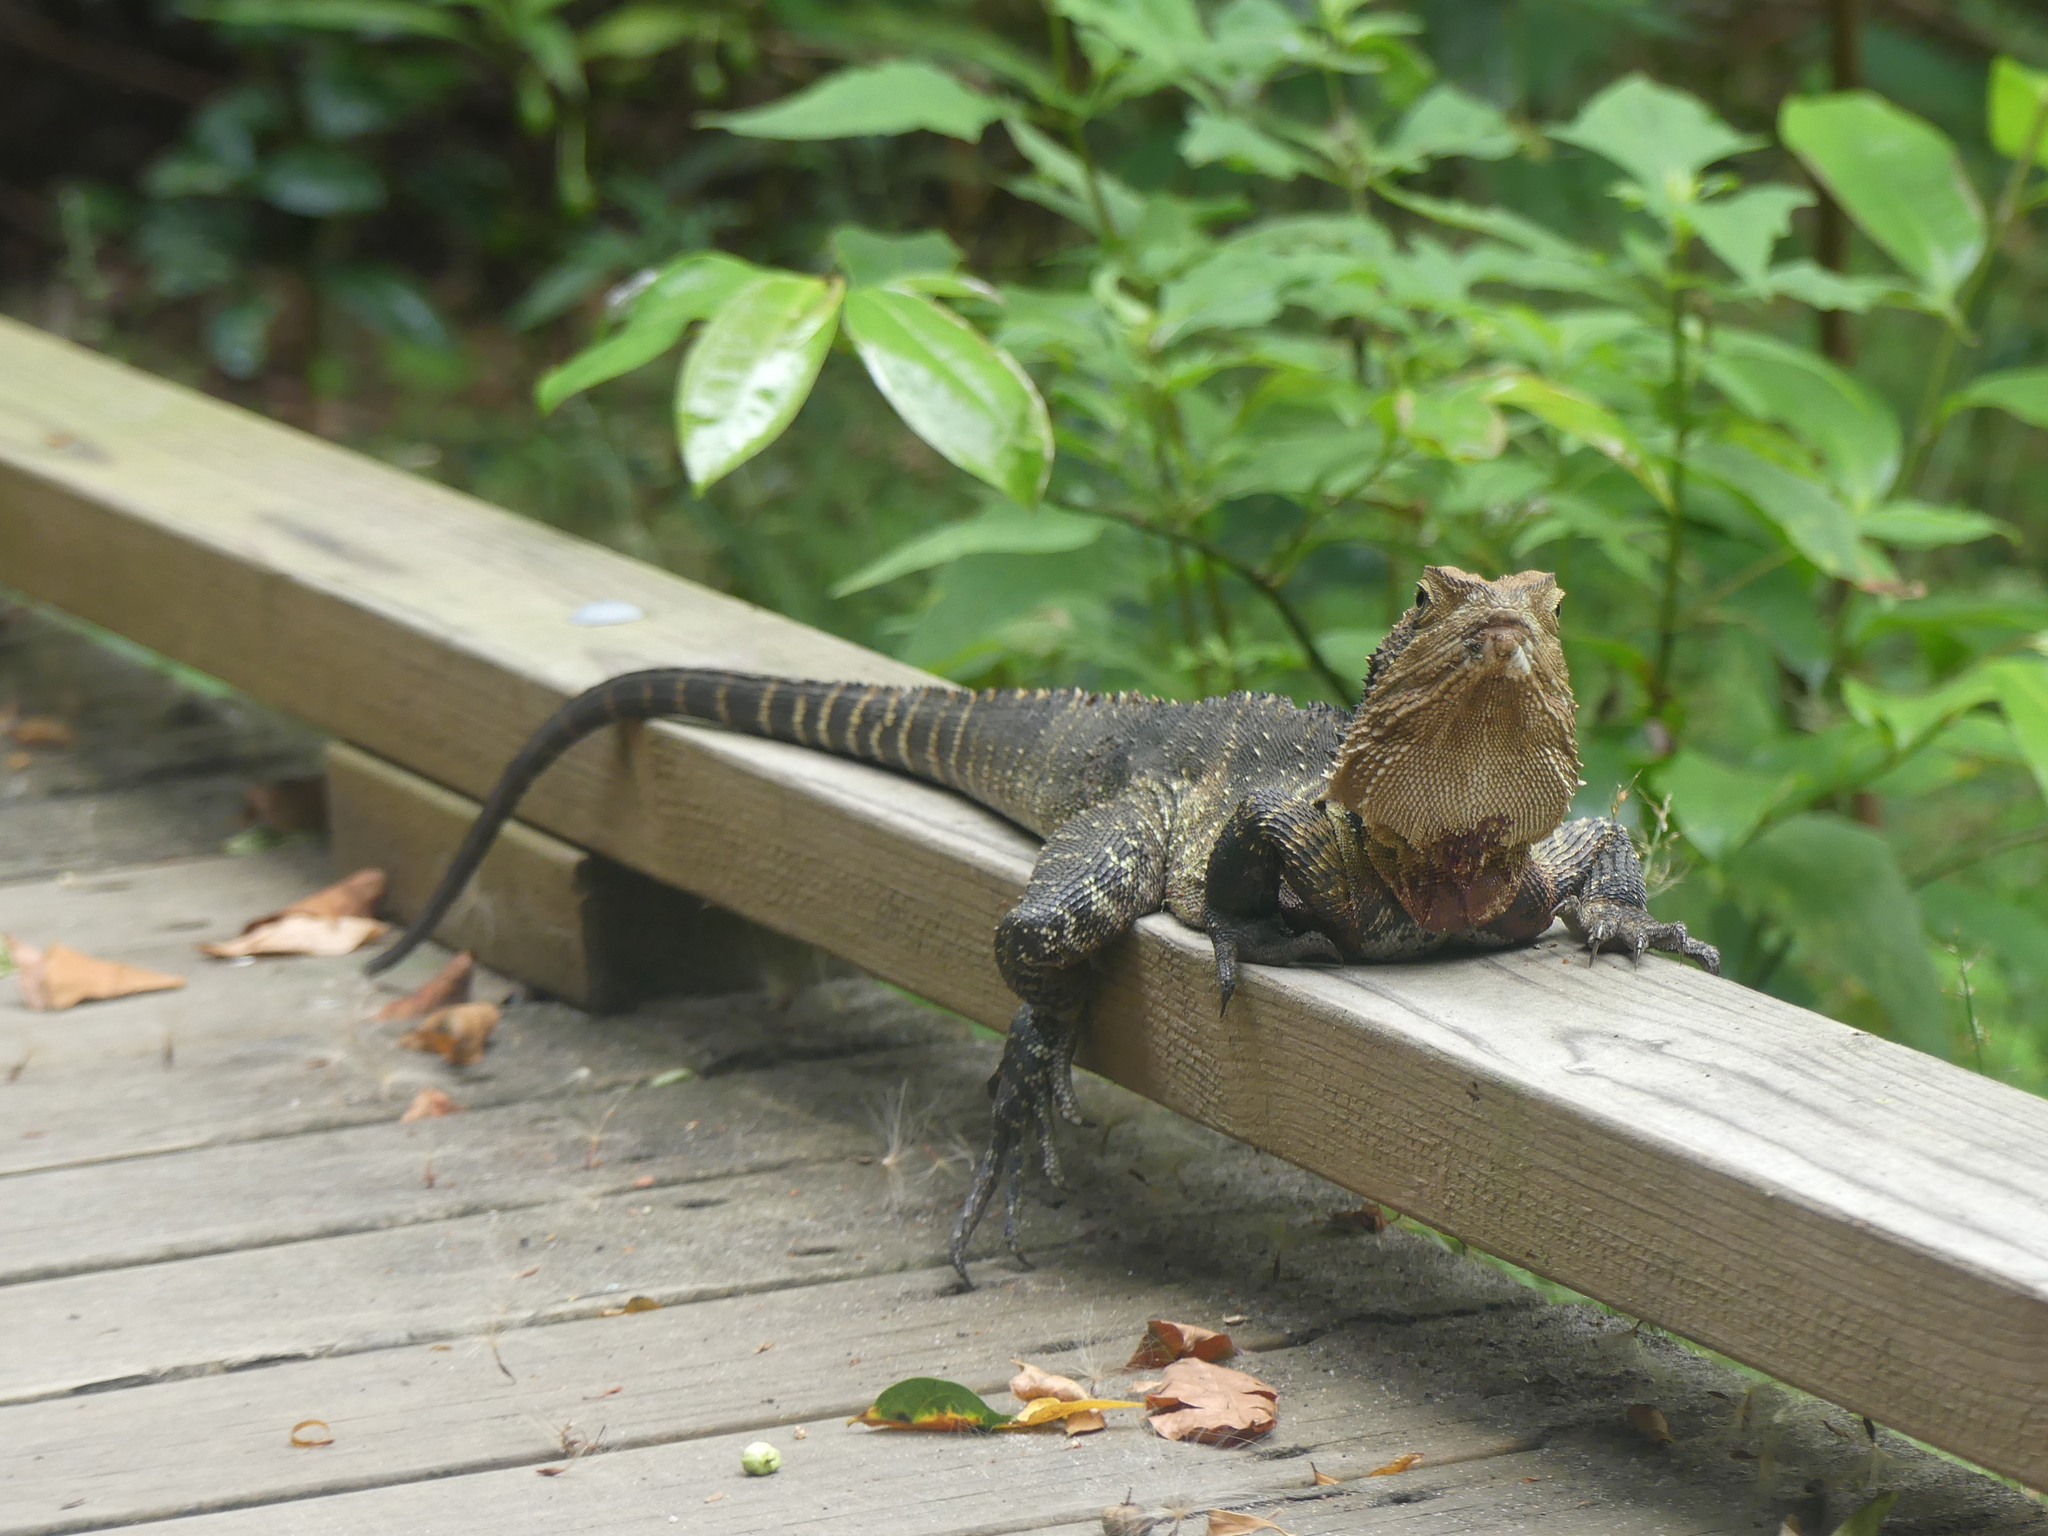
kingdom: Animalia
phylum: Chordata
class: Squamata
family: Agamidae
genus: Intellagama
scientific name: Intellagama lesueurii
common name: Eastern water dragon
